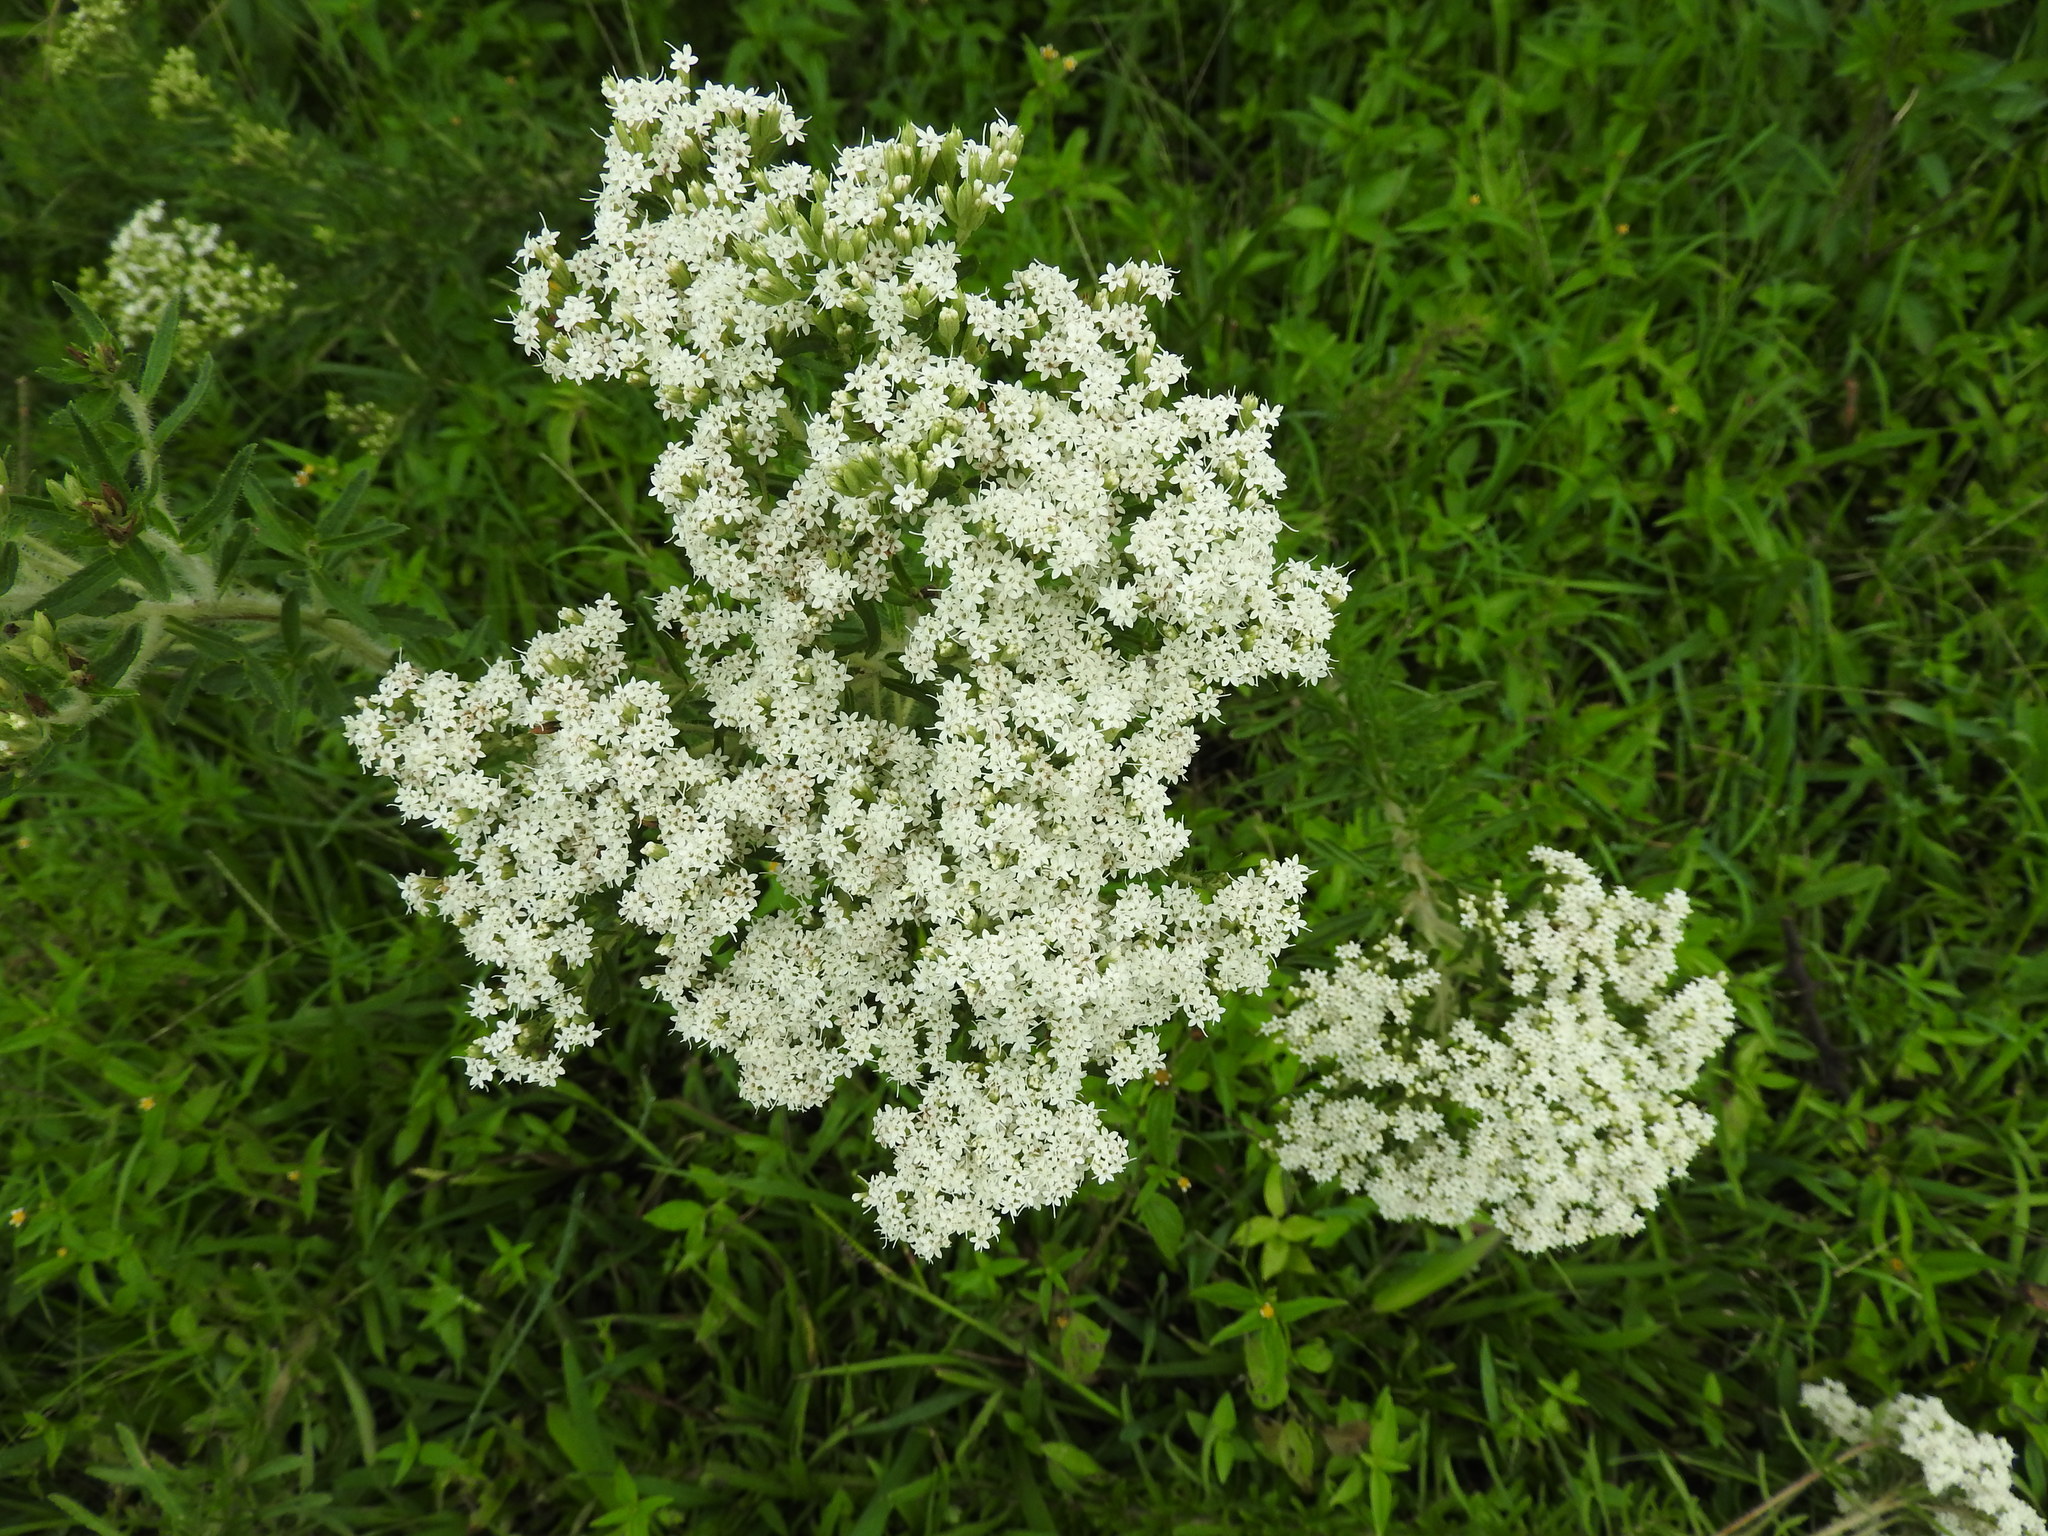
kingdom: Plantae
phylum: Tracheophyta
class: Magnoliopsida
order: Asterales
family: Asteraceae
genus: Stevia
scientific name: Stevia serrata
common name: Sawtooth candyleaf
